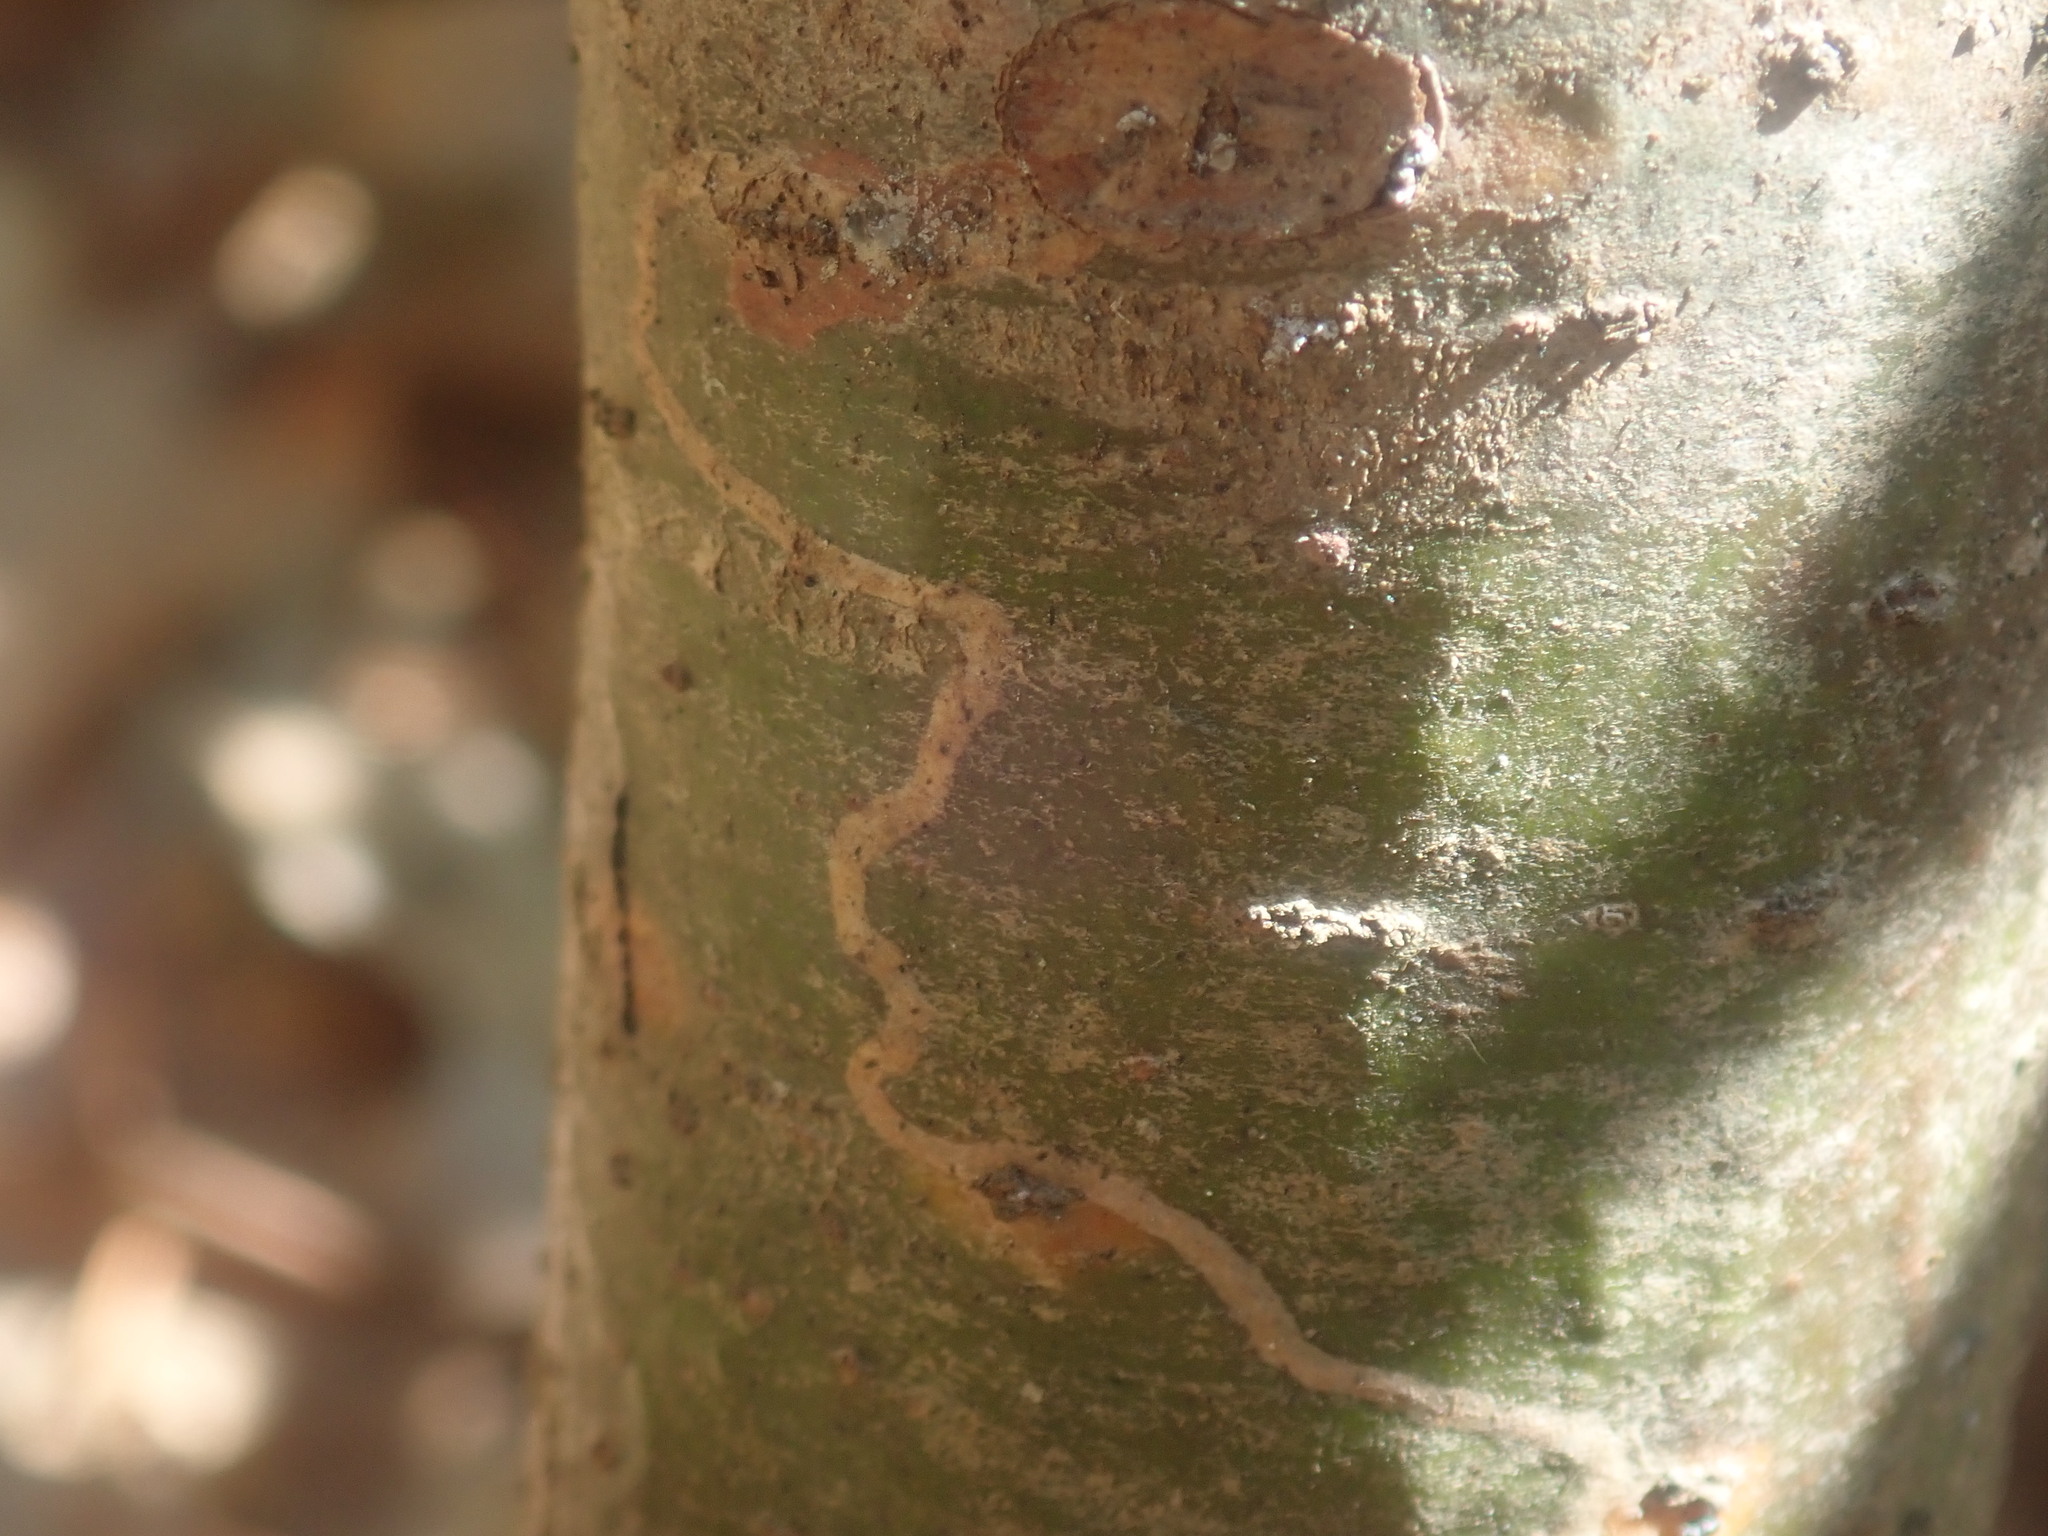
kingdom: Animalia
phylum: Arthropoda
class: Insecta
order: Lepidoptera
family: Gracillariidae
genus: Marmara
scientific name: Marmara fasciella
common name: White pine barkminer moth
